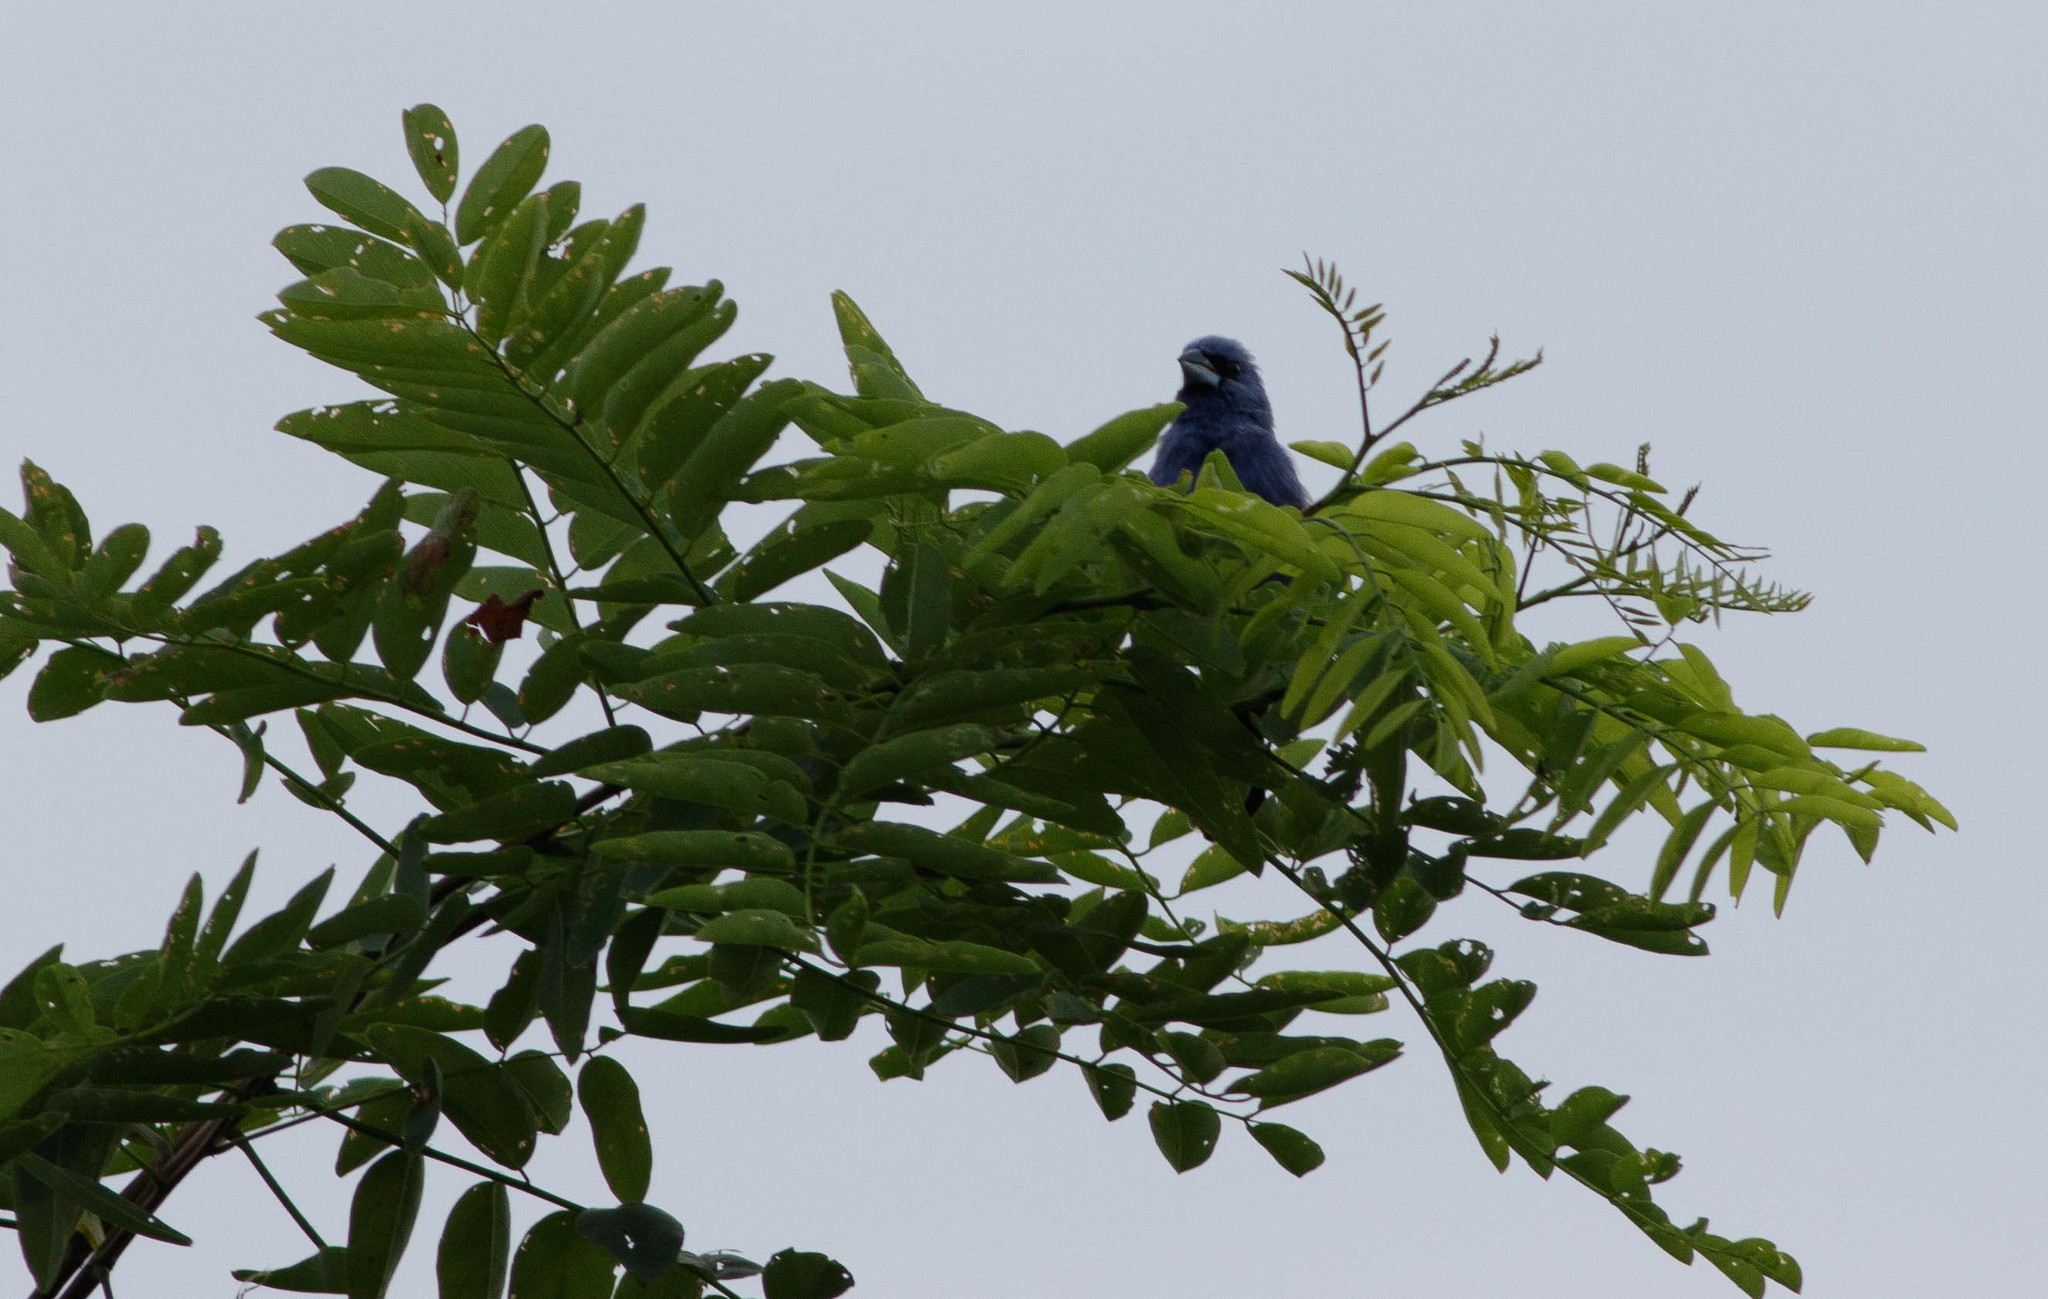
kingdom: Animalia
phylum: Chordata
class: Aves
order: Passeriformes
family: Cardinalidae
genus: Passerina
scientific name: Passerina caerulea
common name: Blue grosbeak
